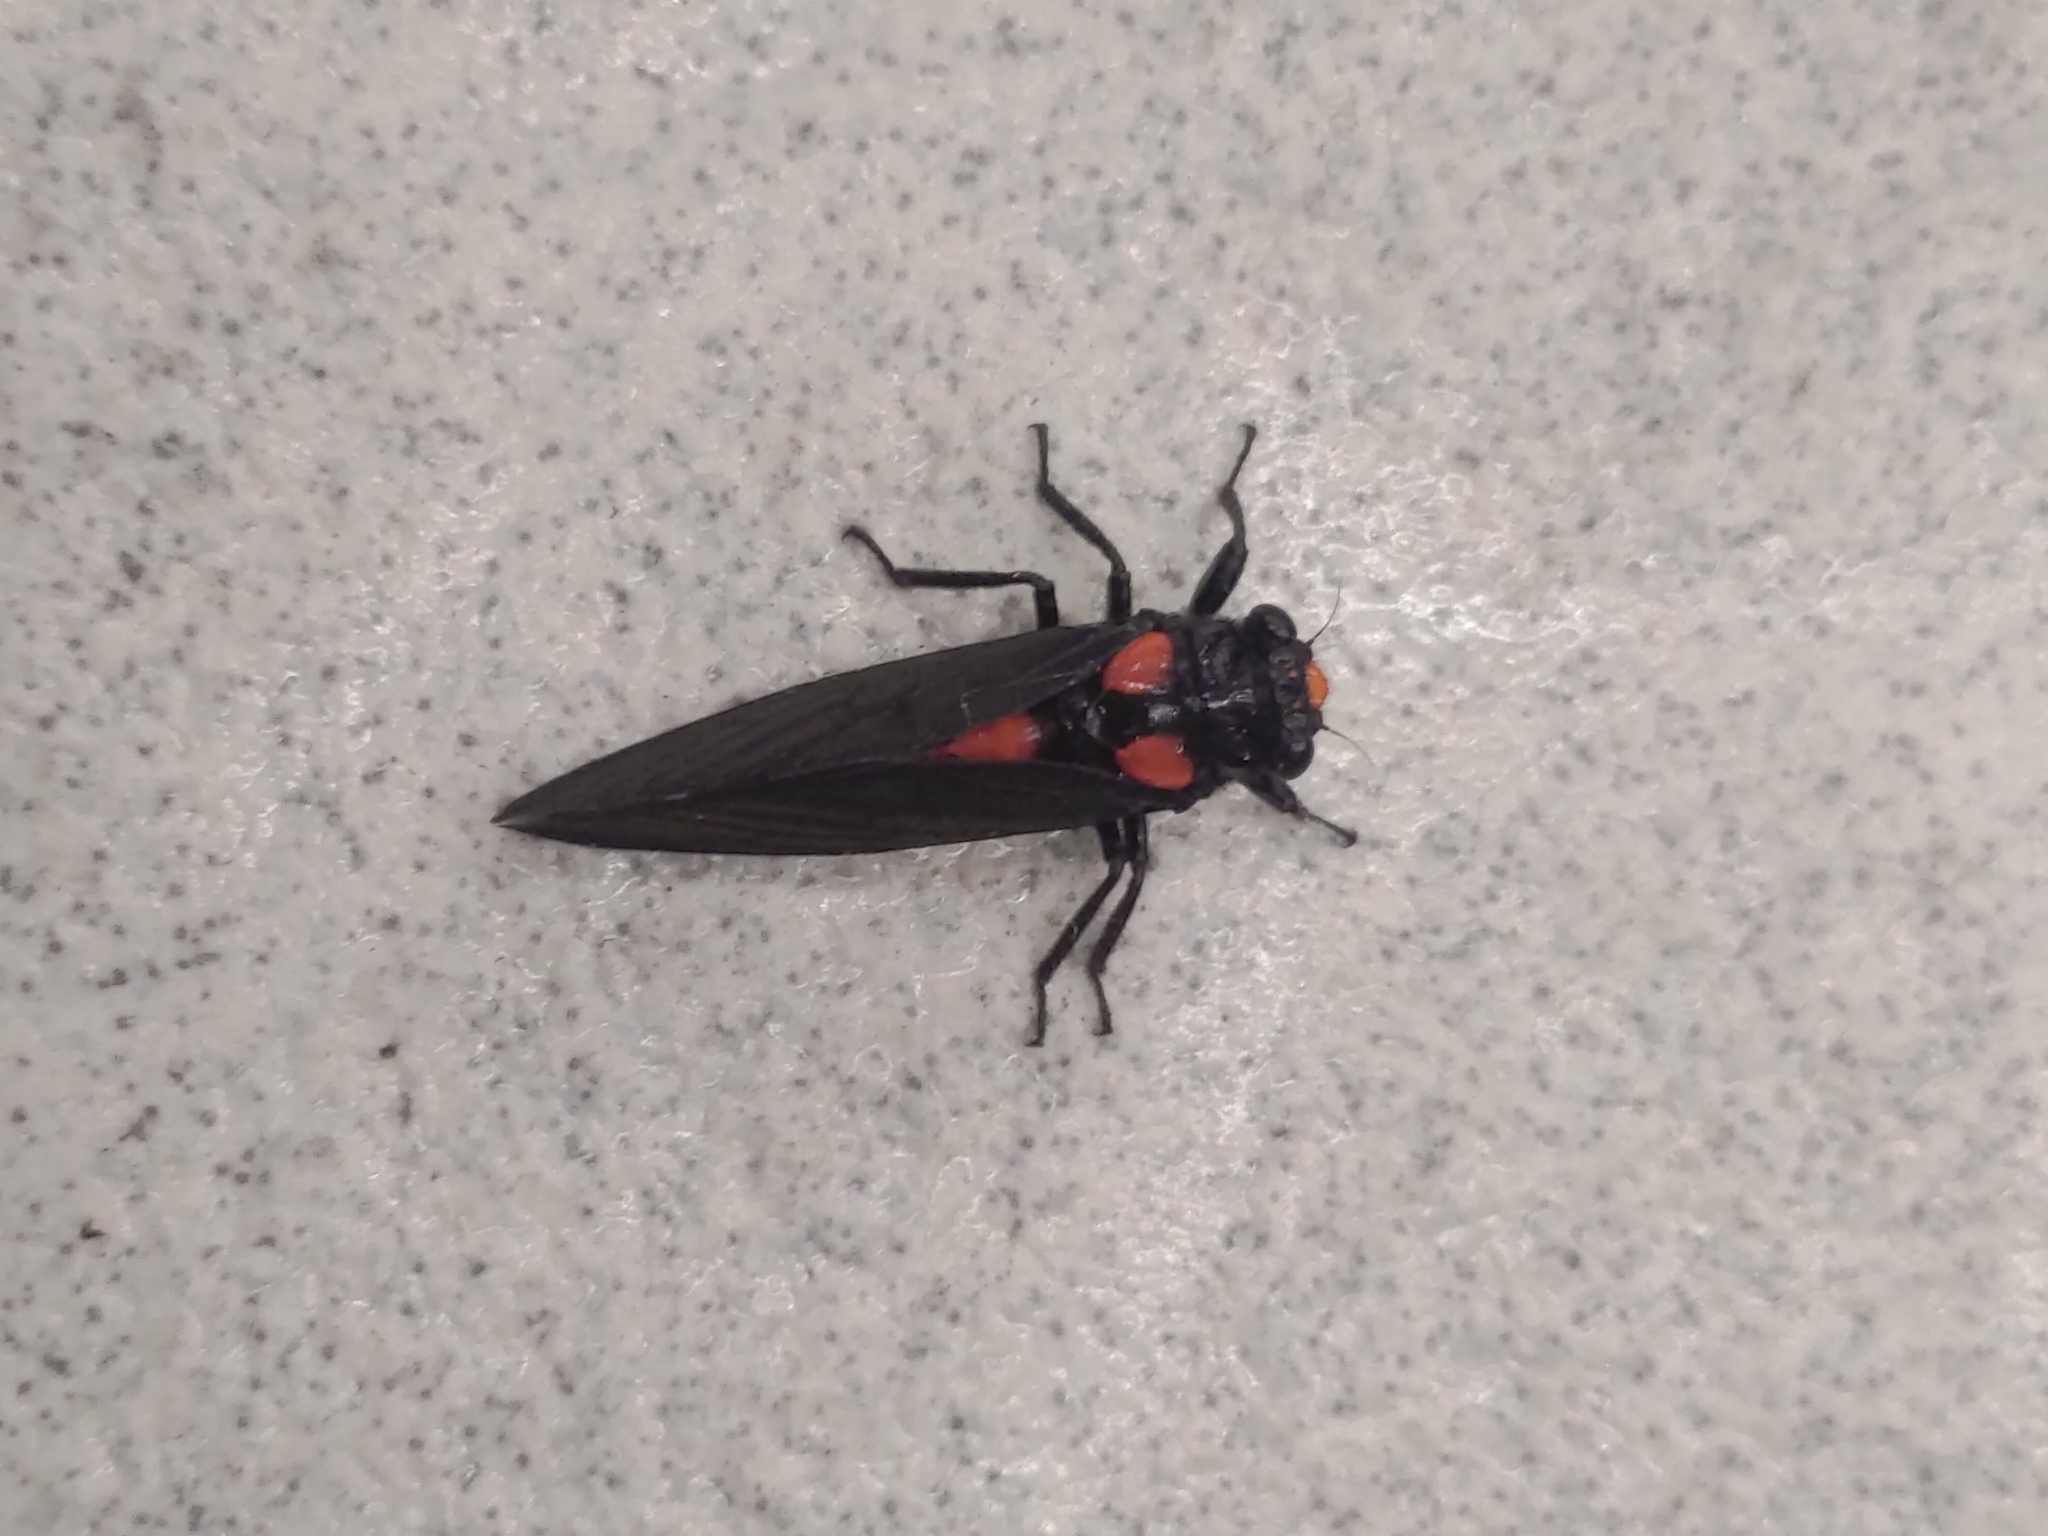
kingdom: Animalia
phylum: Arthropoda
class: Insecta
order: Hemiptera
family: Cicadidae
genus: Huechys
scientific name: Huechys sanguinea
